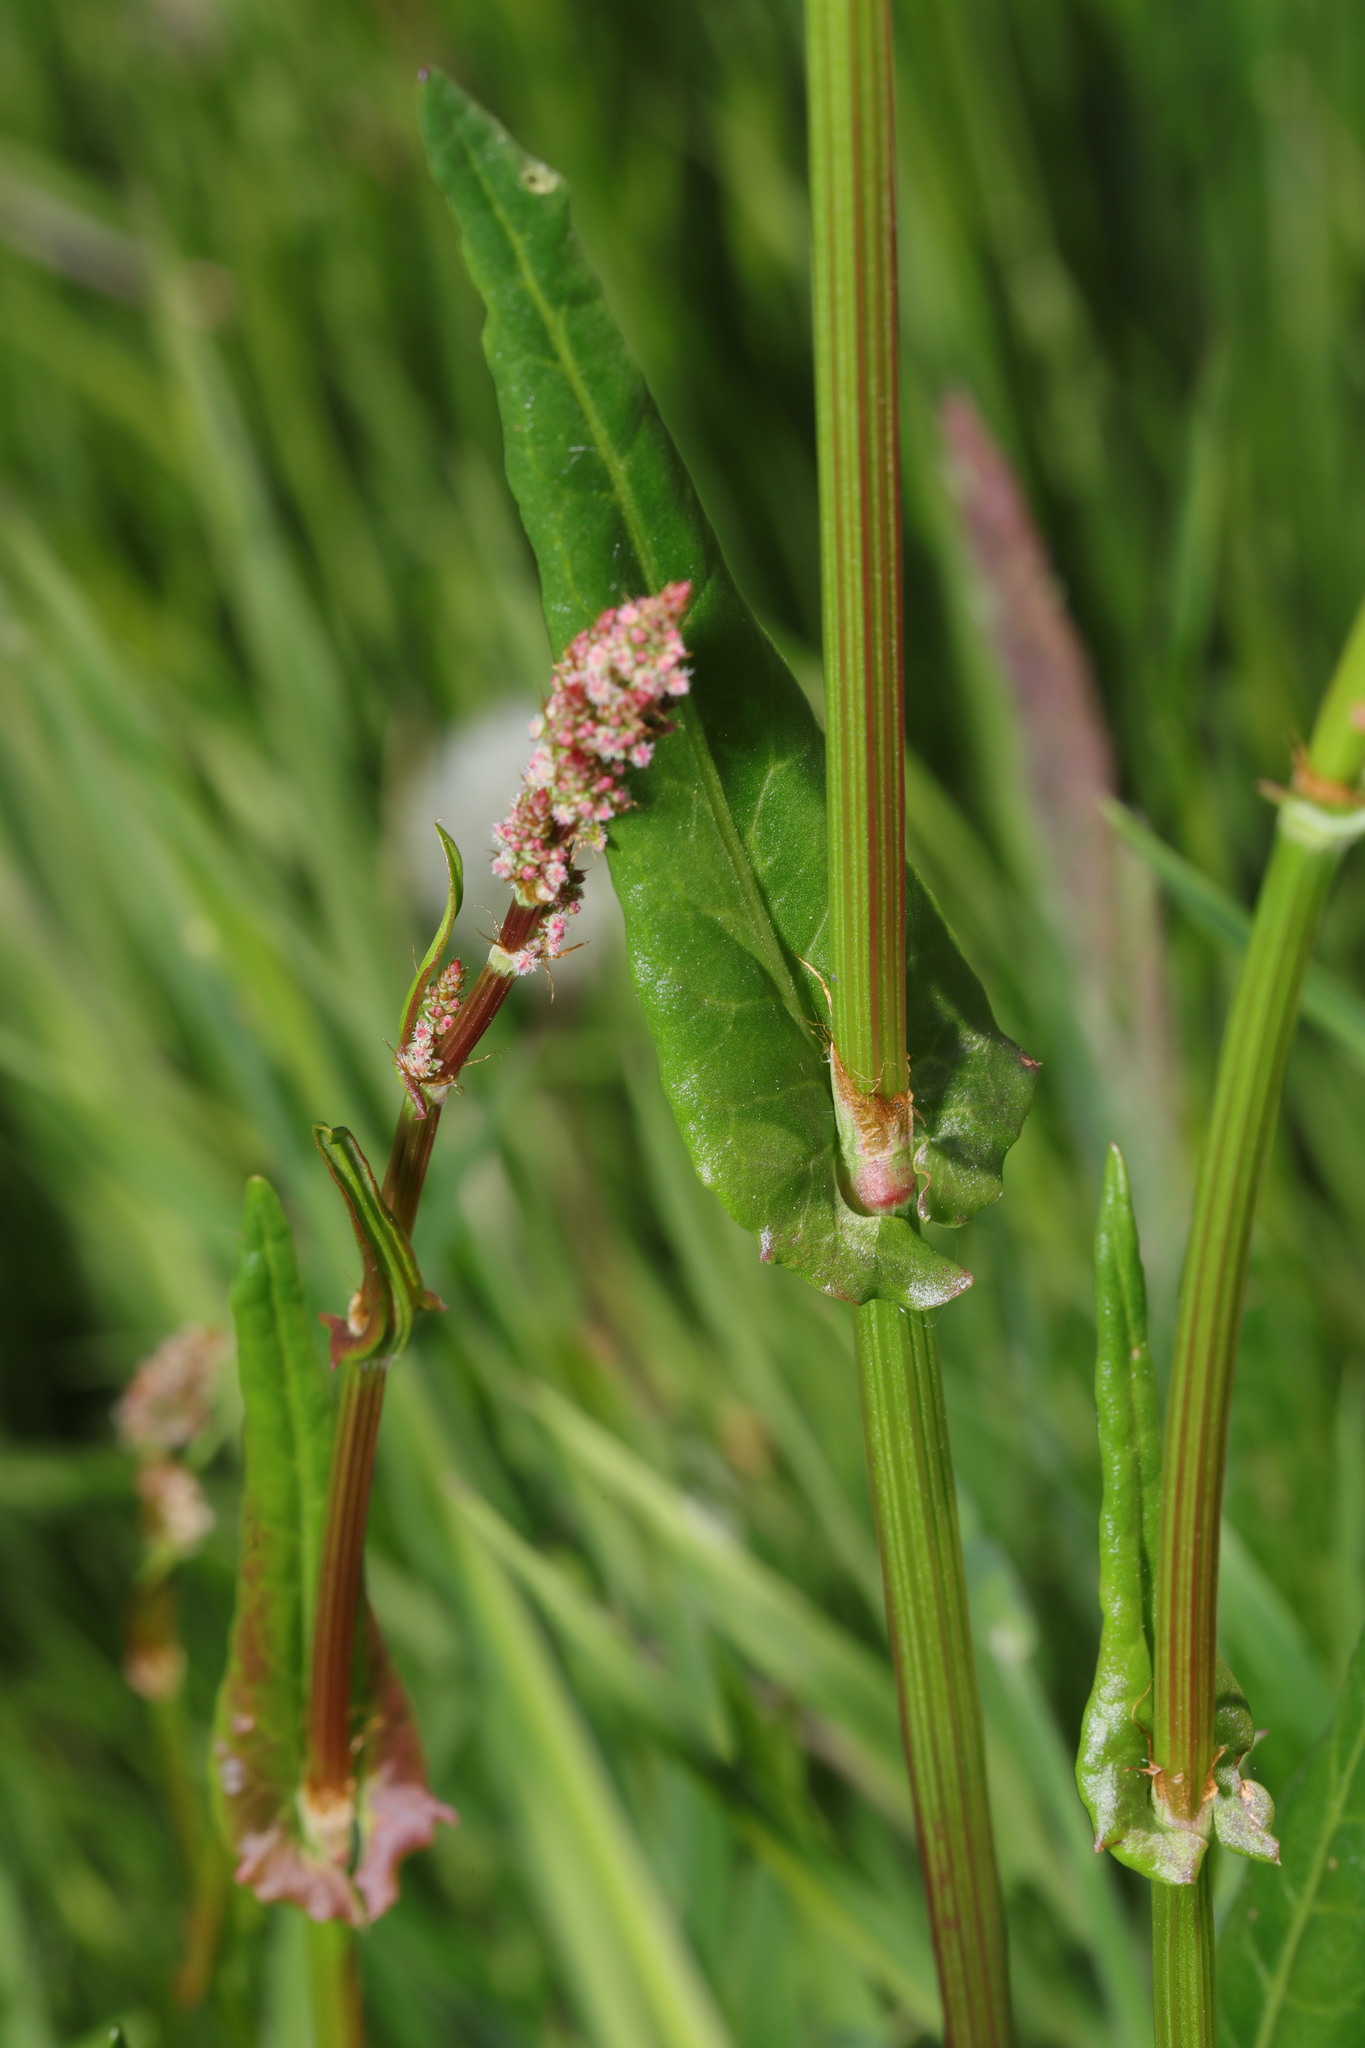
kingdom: Plantae
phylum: Tracheophyta
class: Magnoliopsida
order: Caryophyllales
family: Polygonaceae
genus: Rumex
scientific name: Rumex acetosa
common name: Garden sorrel
